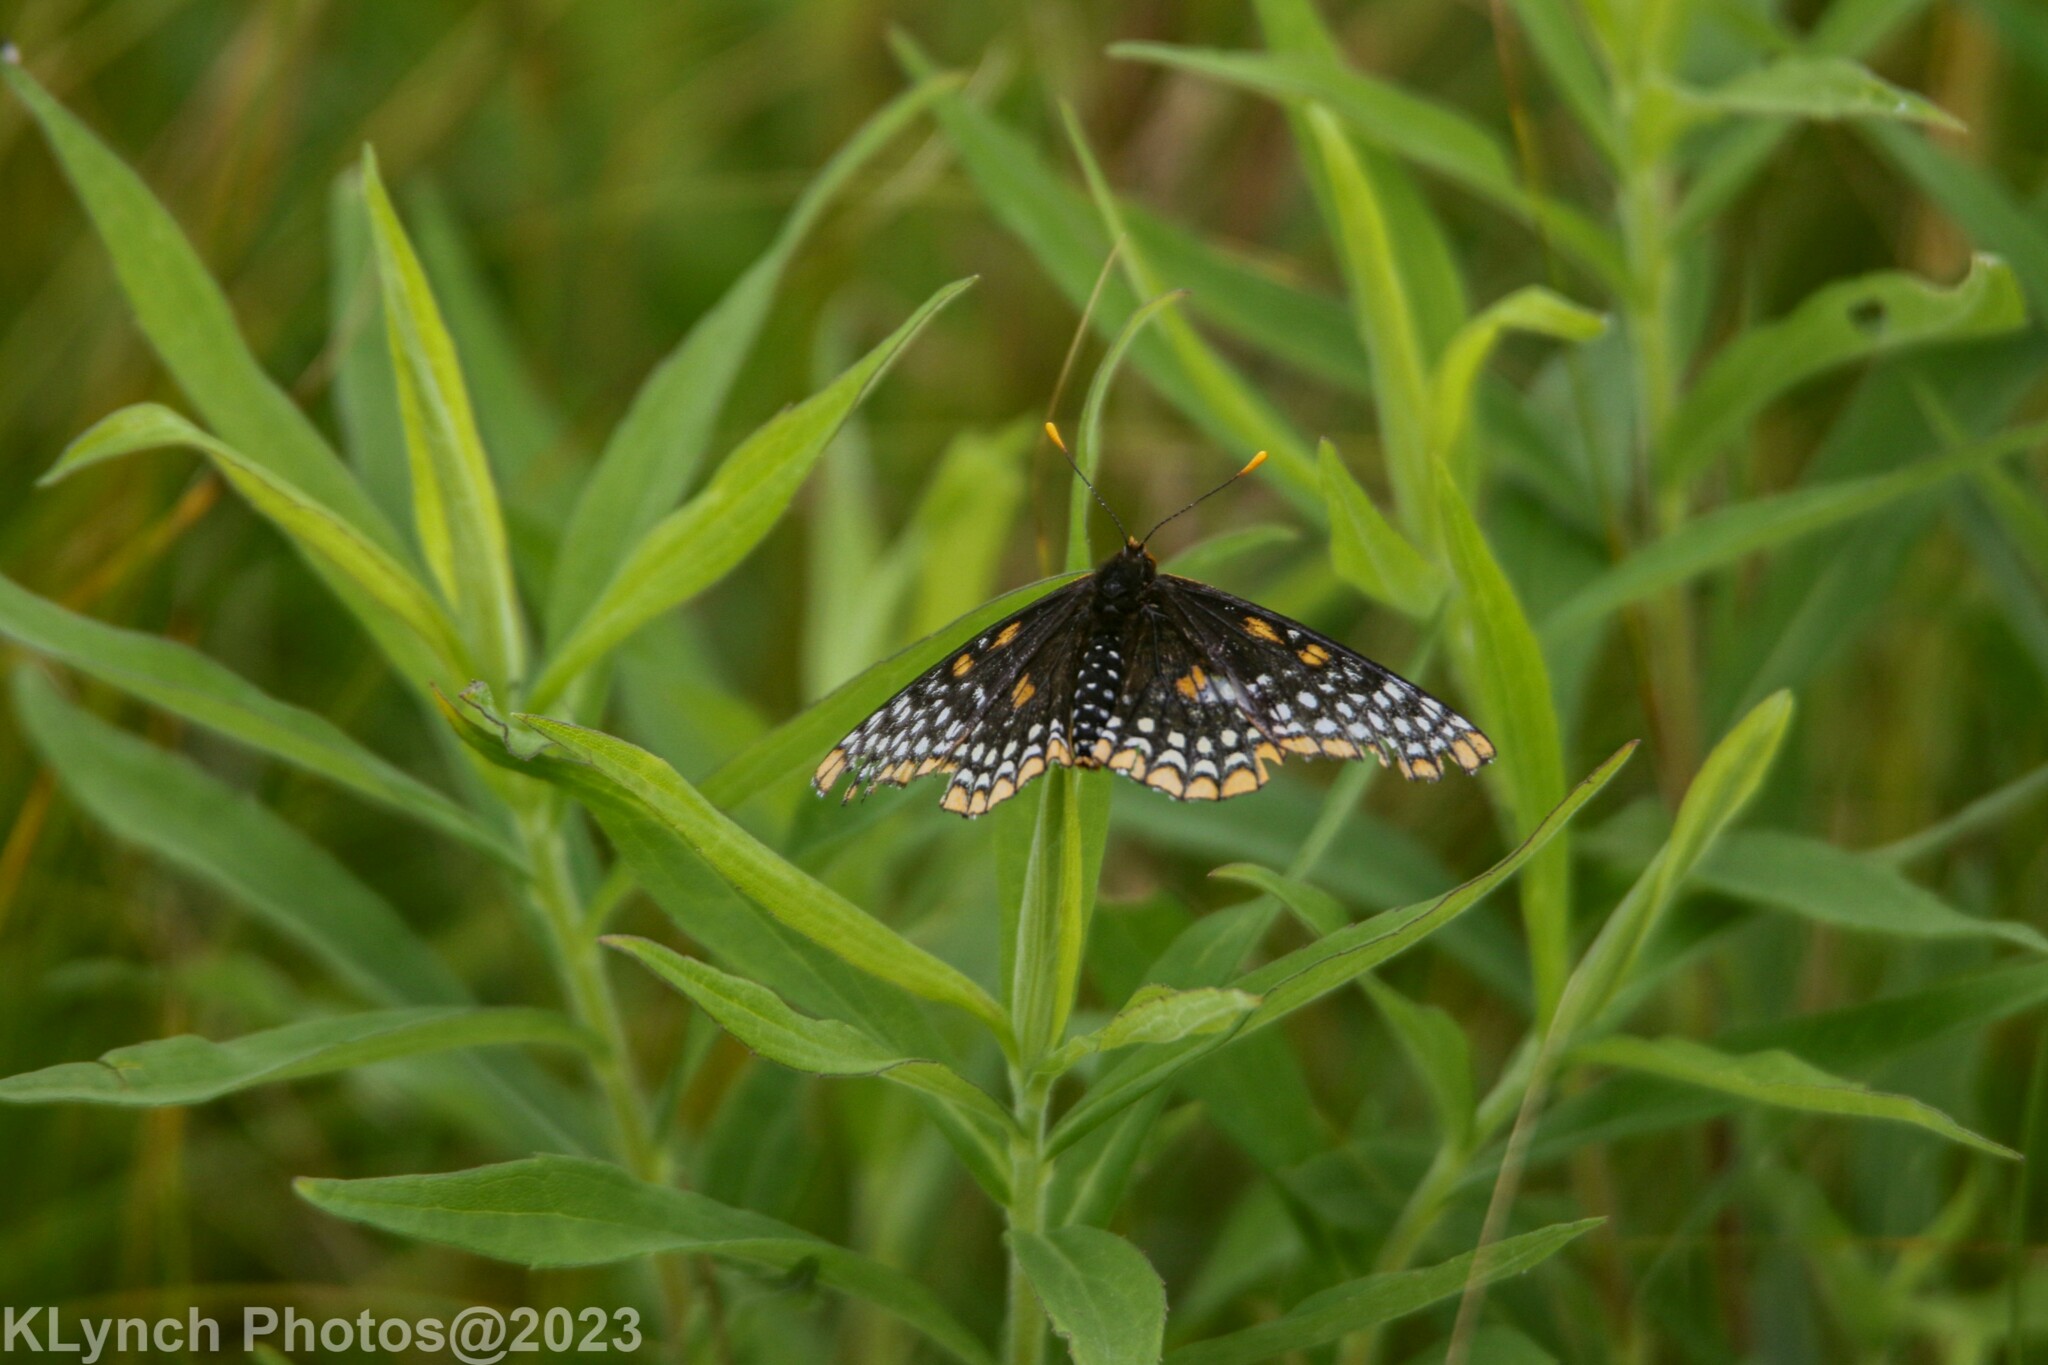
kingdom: Animalia
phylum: Arthropoda
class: Insecta
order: Lepidoptera
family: Nymphalidae
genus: Euphydryas
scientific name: Euphydryas phaeton
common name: Baltimore checkerspot
